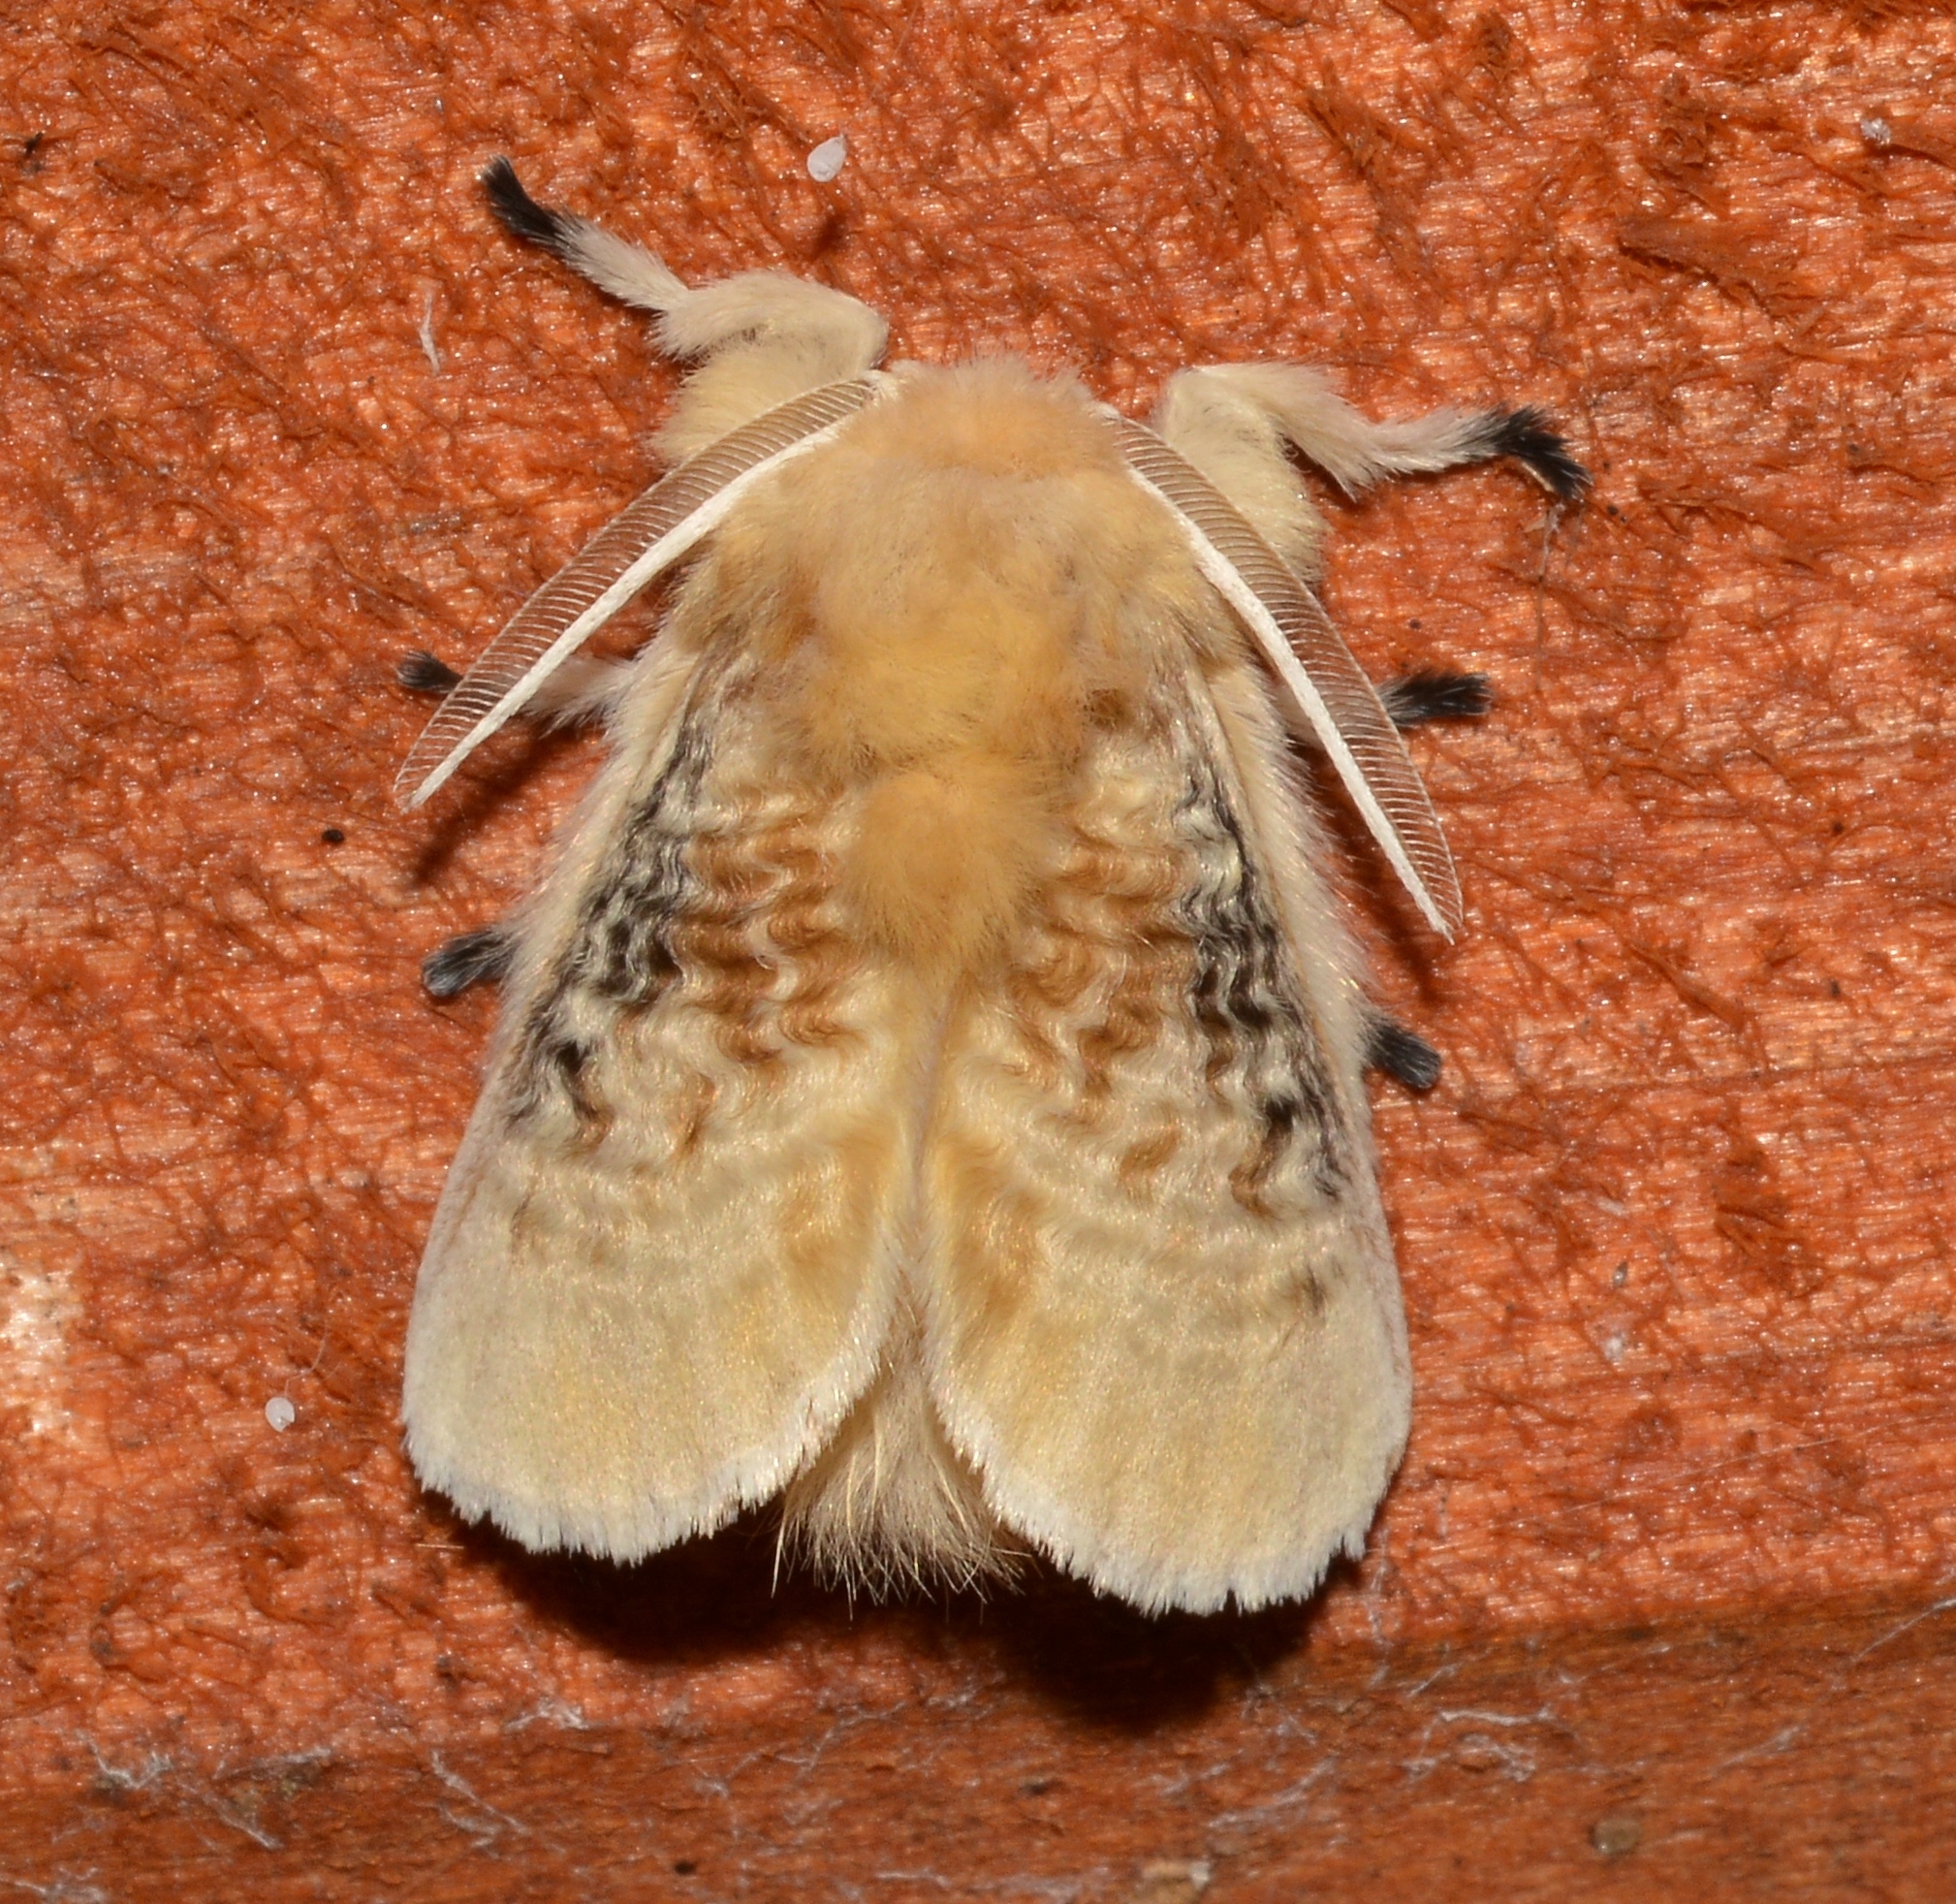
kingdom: Animalia
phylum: Arthropoda
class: Insecta
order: Lepidoptera
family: Megalopygidae
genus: Megalopyge
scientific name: Megalopyge crispata
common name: Black-waved flannel moth
